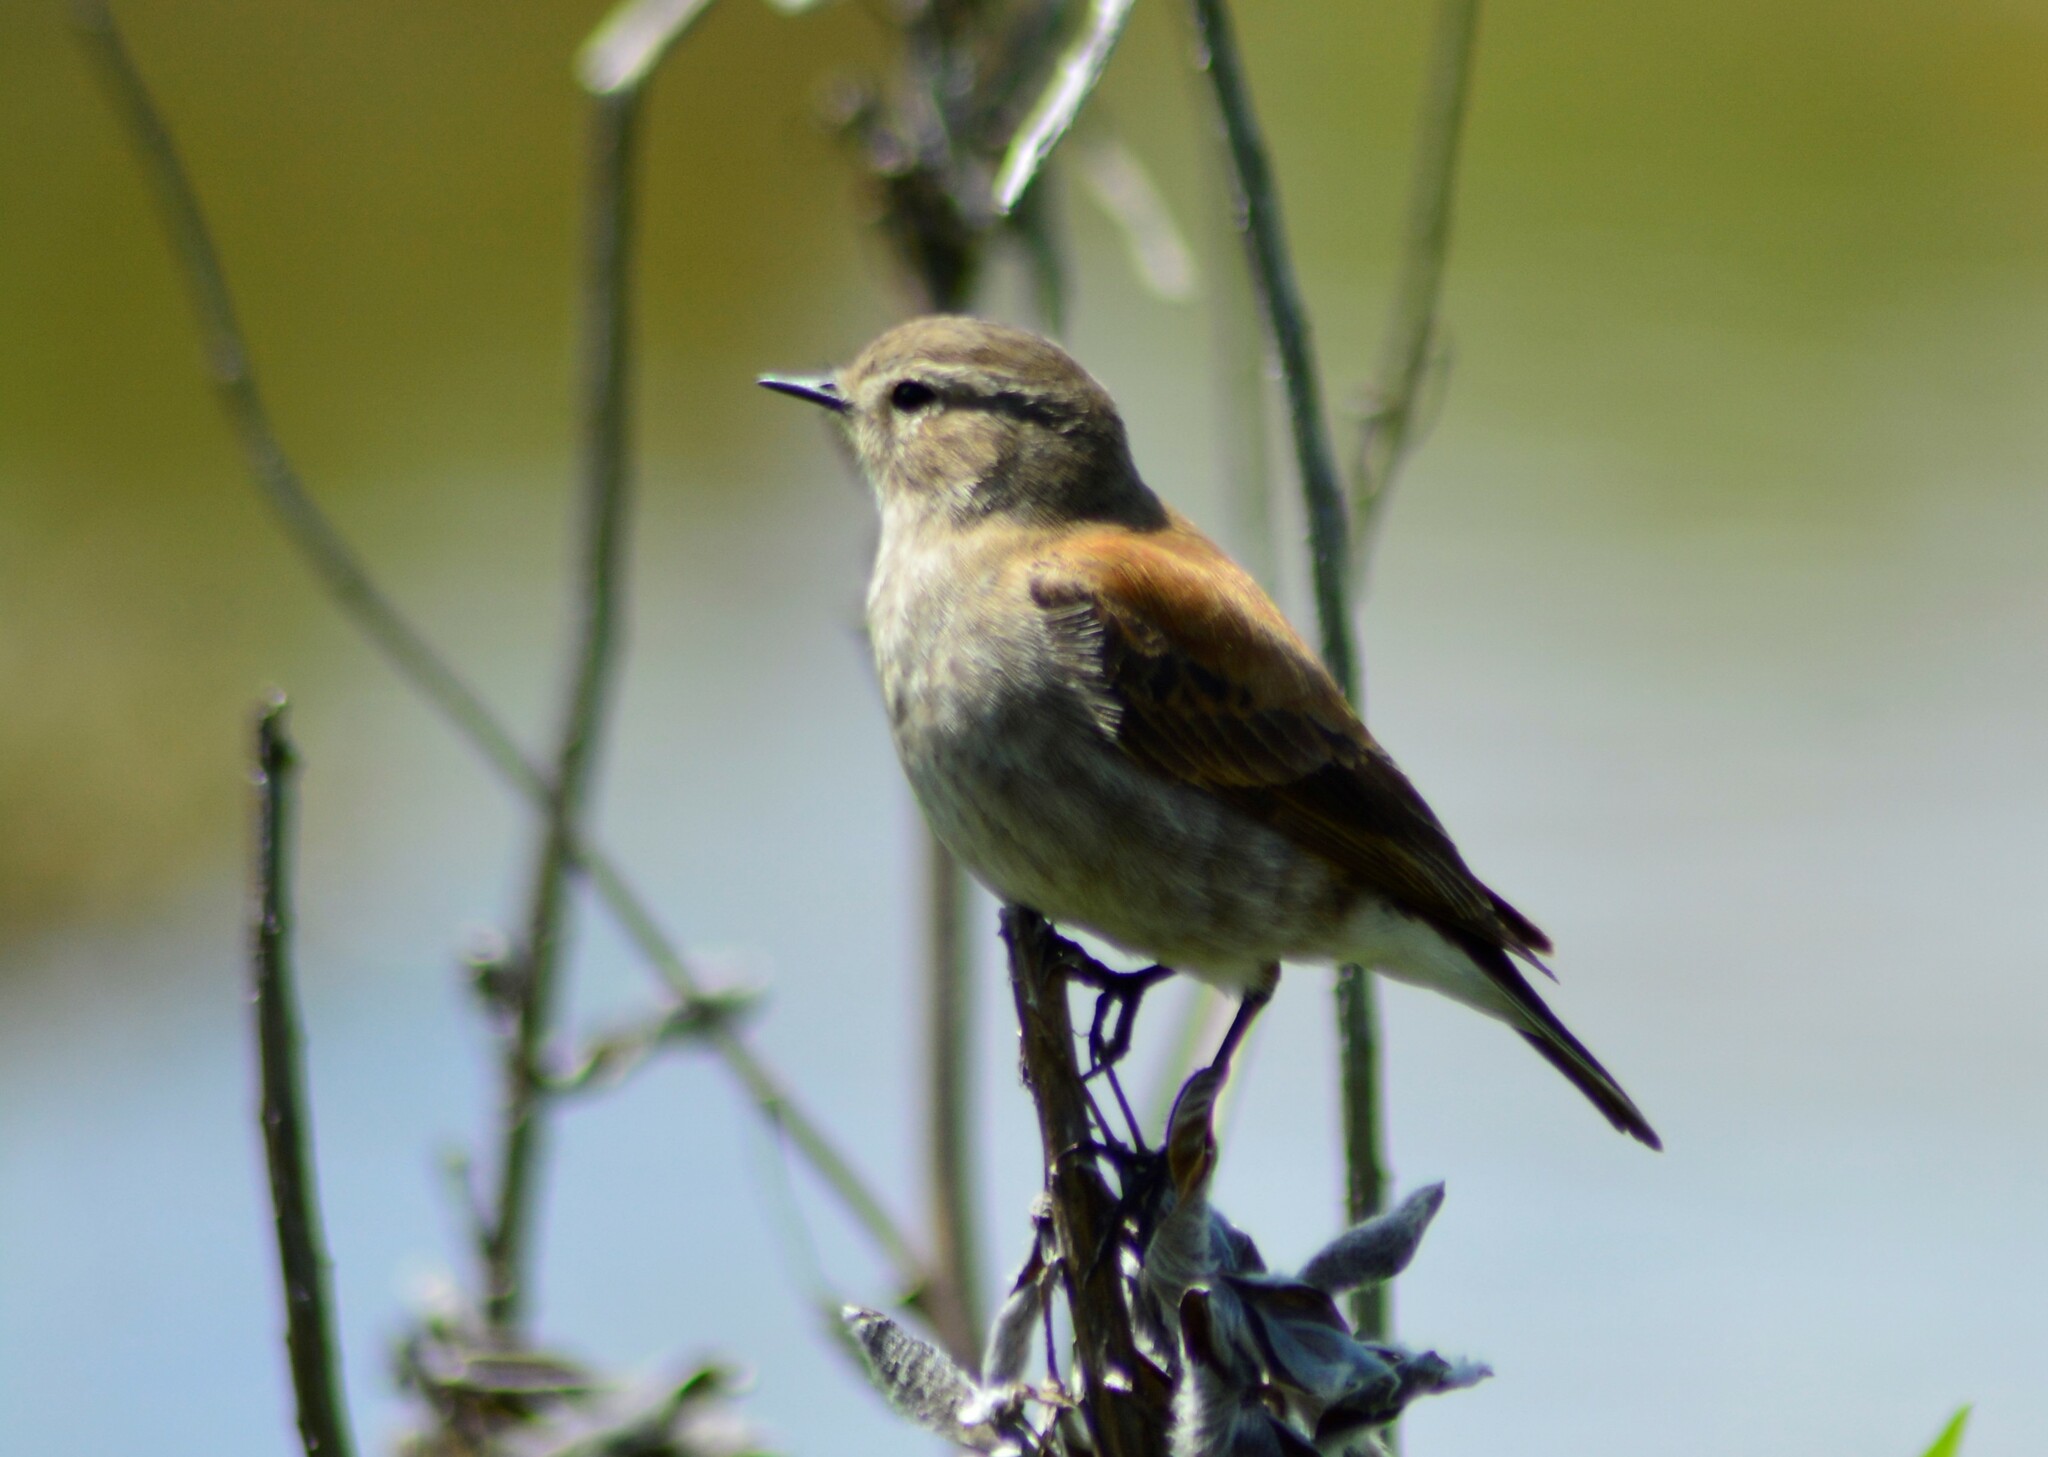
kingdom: Animalia
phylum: Chordata
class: Aves
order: Passeriformes
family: Tyrannidae
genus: Lessonia
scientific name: Lessonia rufa
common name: Austral negrito
